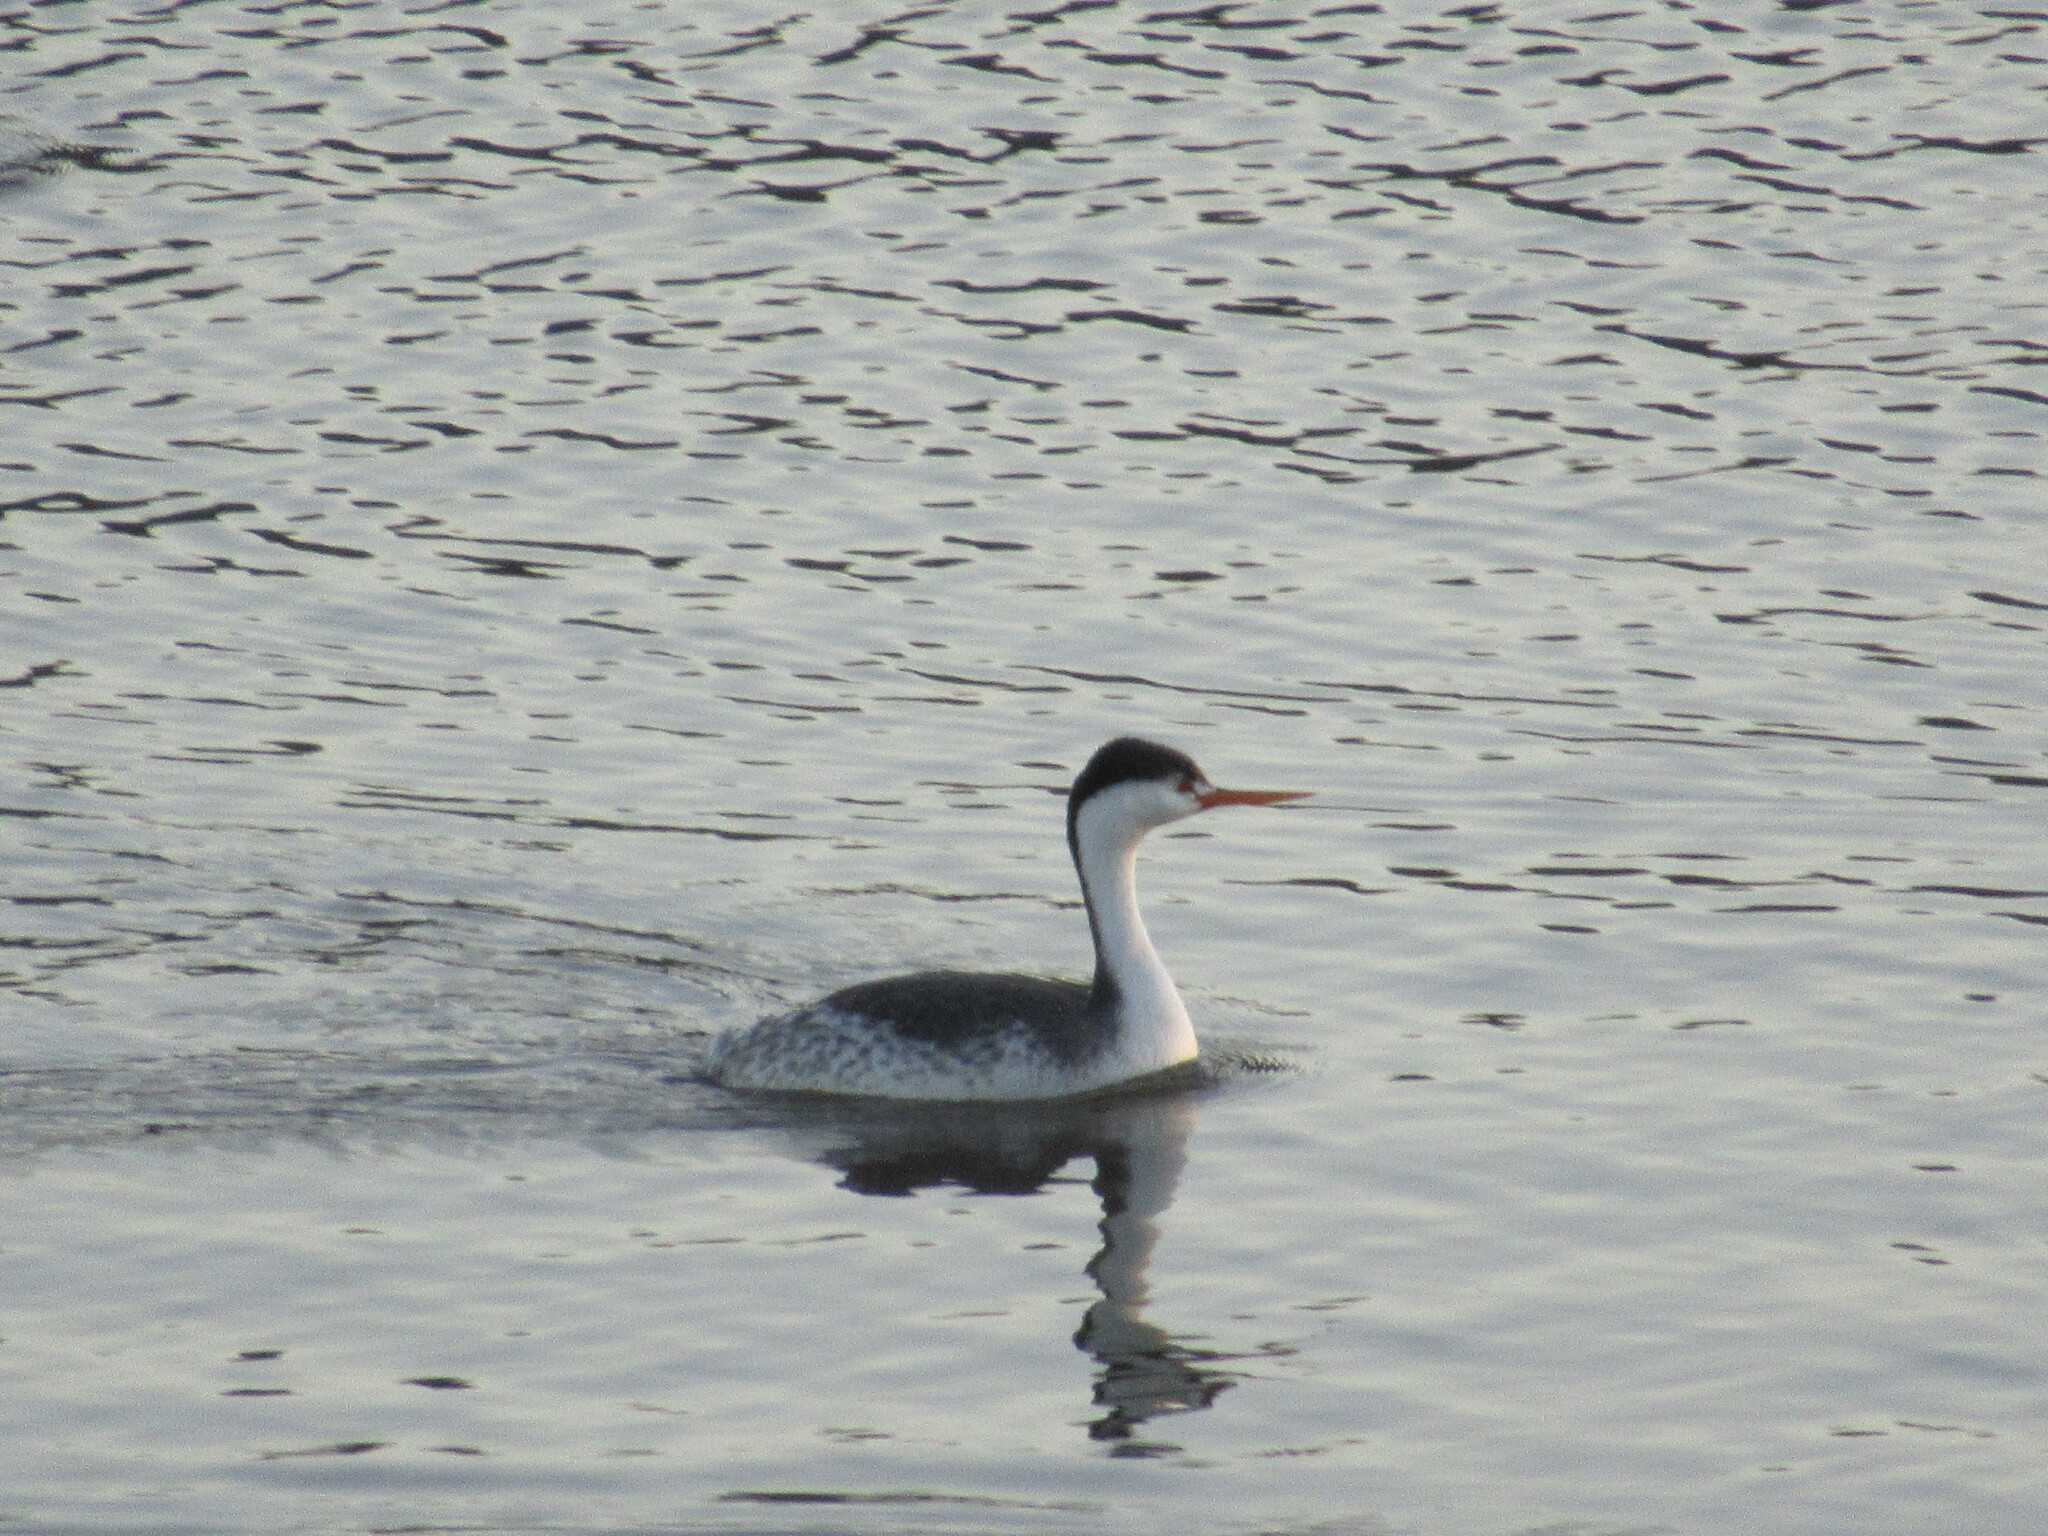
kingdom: Animalia
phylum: Chordata
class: Aves
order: Podicipediformes
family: Podicipedidae
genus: Aechmophorus
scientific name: Aechmophorus clarkii
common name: Clark's grebe
